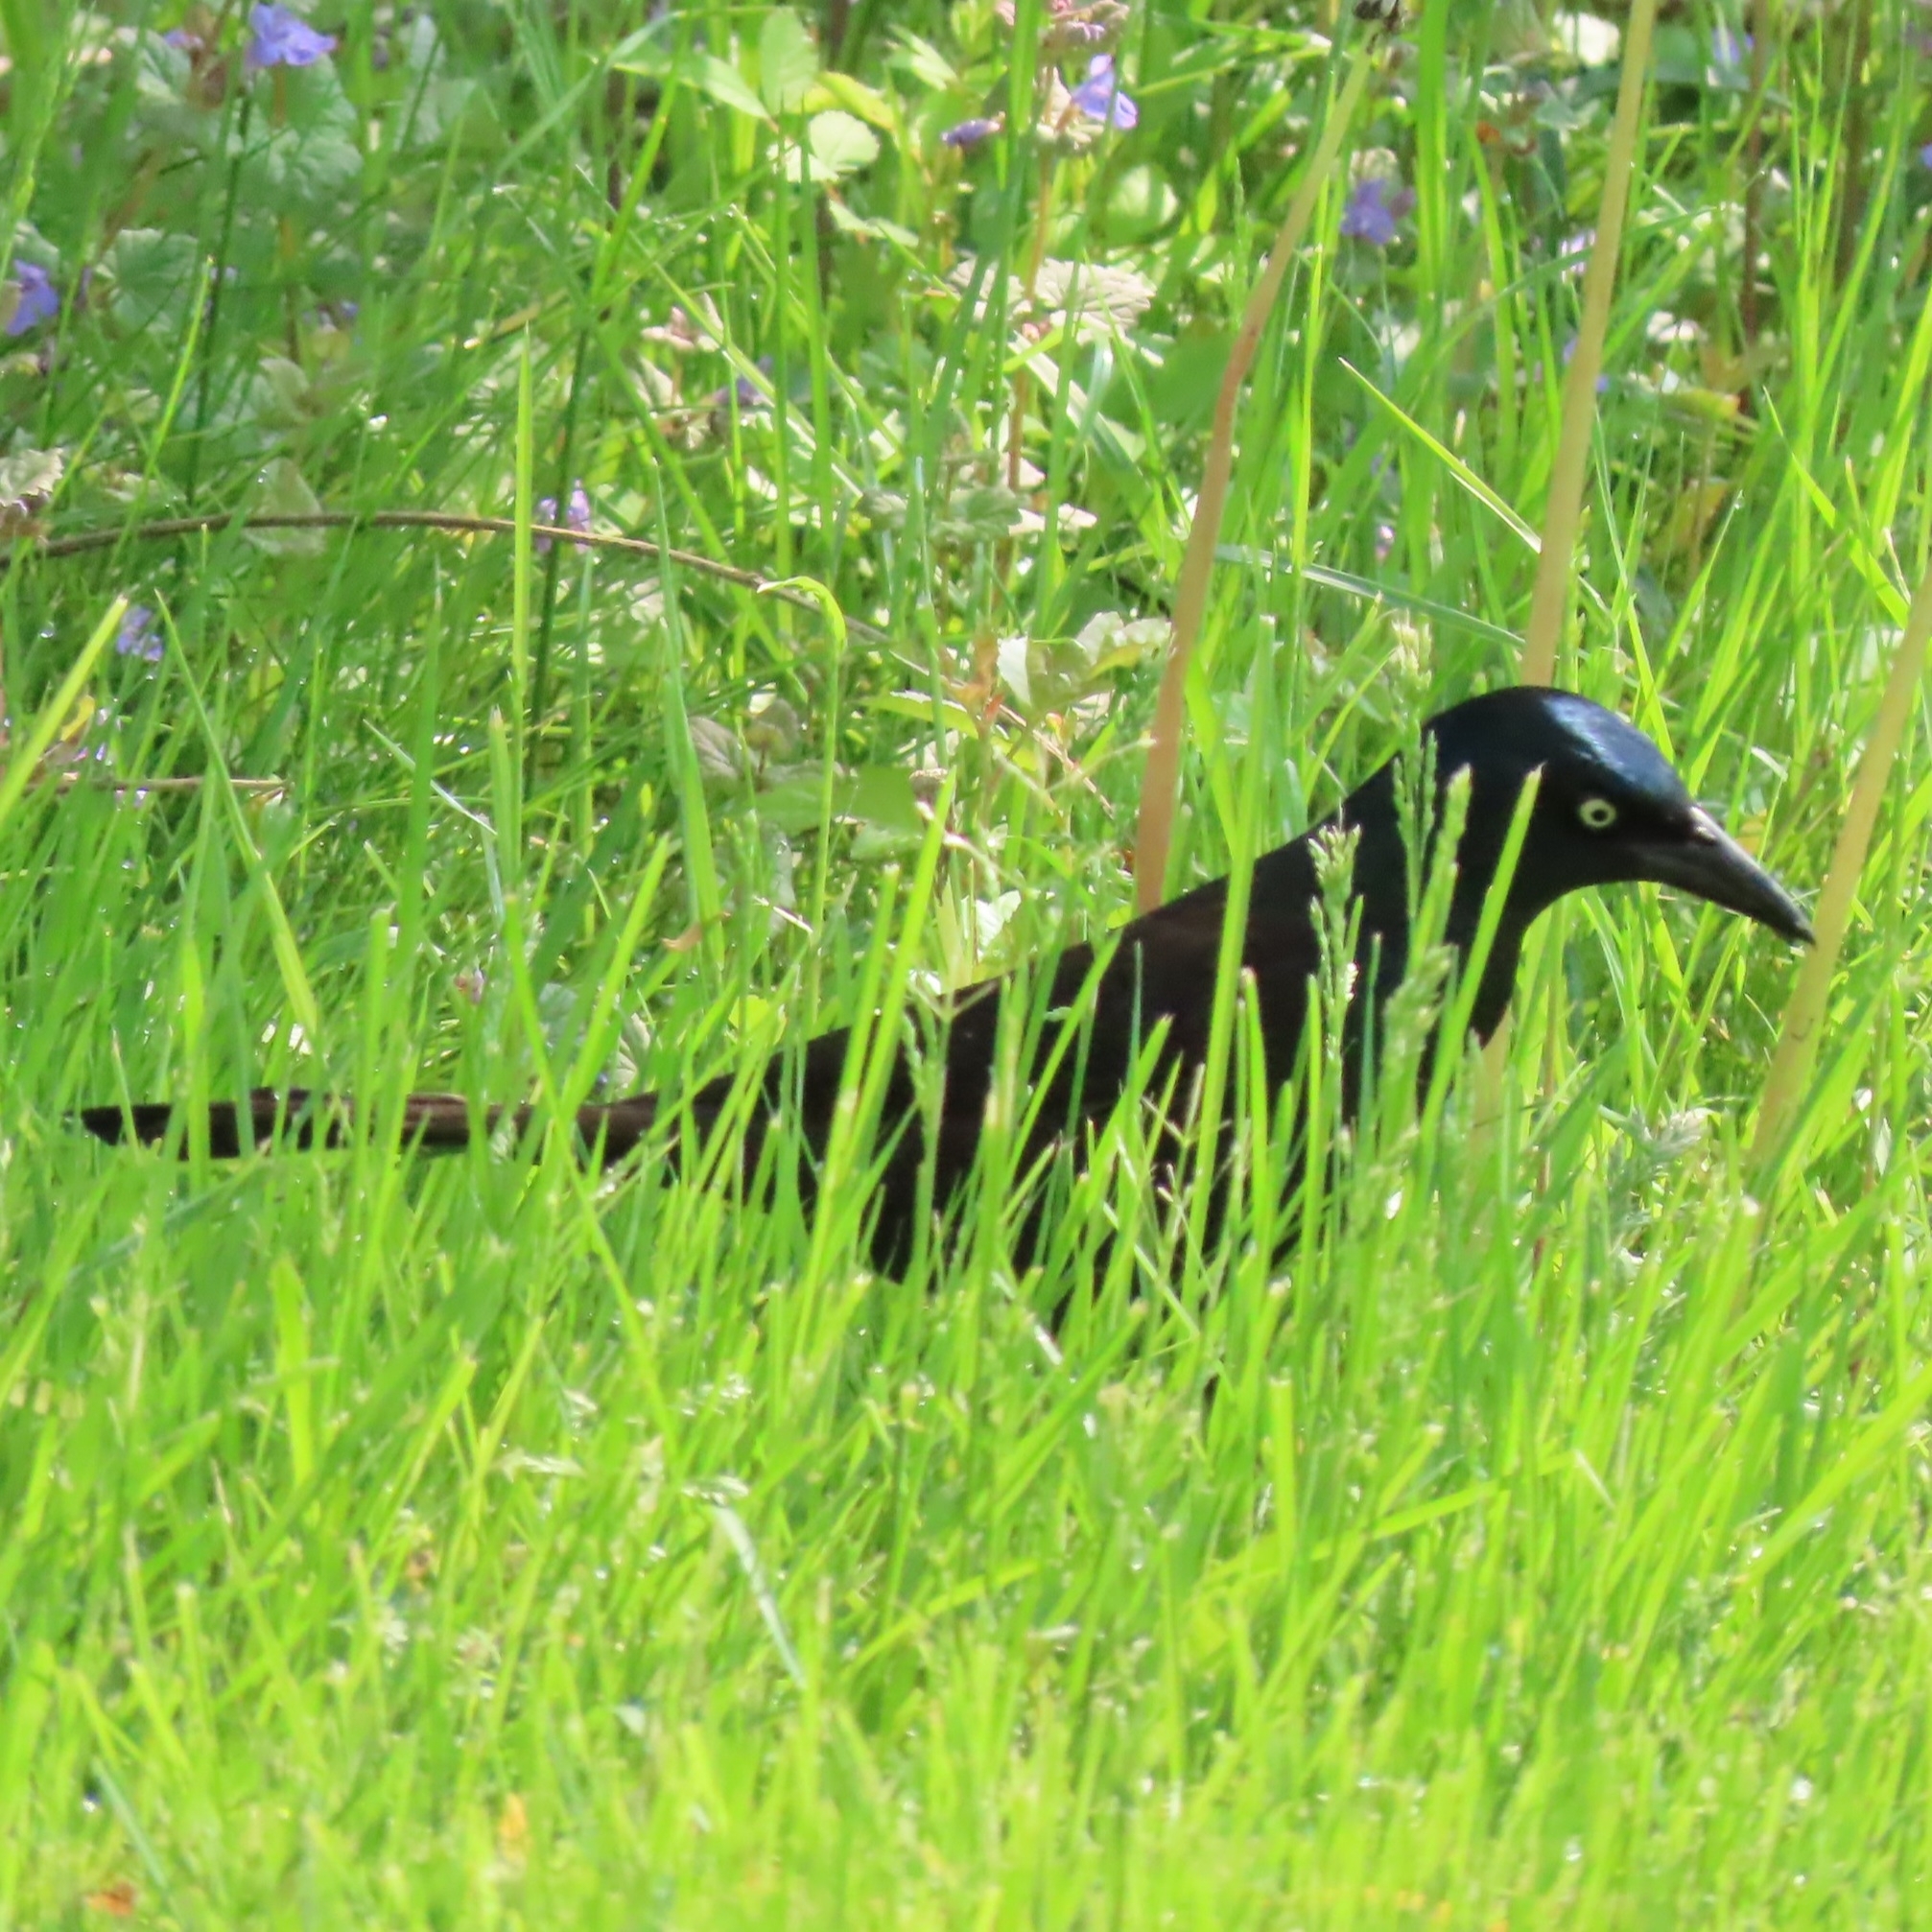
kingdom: Animalia
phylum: Chordata
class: Aves
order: Passeriformes
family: Icteridae
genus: Quiscalus
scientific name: Quiscalus quiscula
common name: Common grackle
